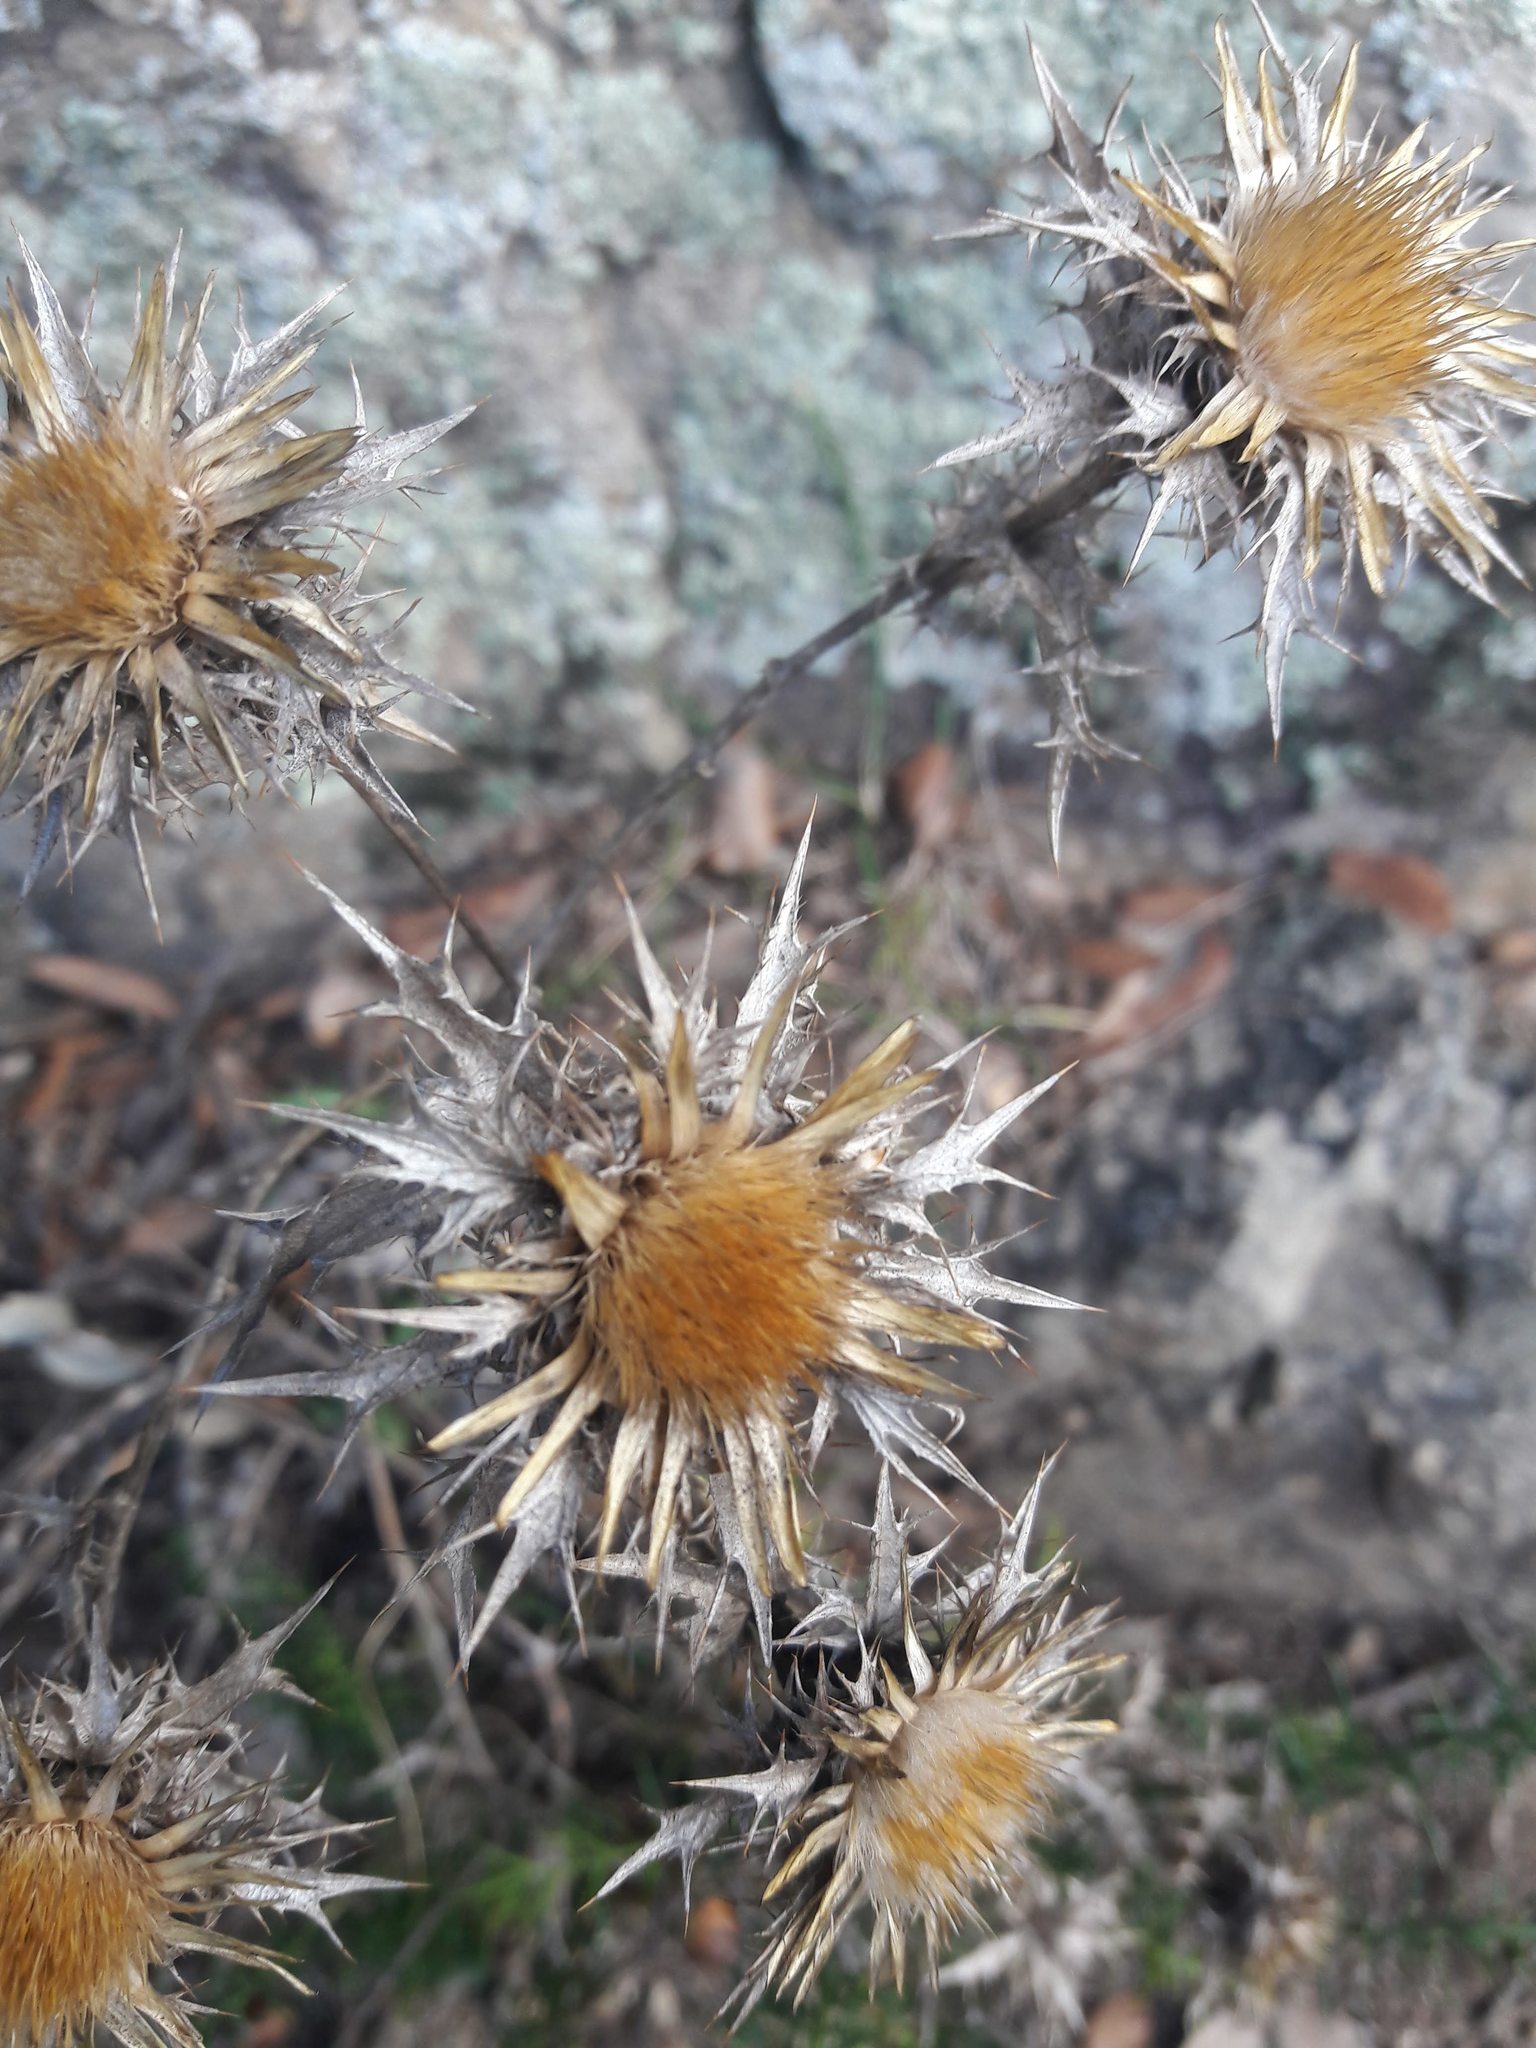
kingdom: Plantae
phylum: Tracheophyta
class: Magnoliopsida
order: Asterales
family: Asteraceae
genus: Carlina
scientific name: Carlina hispanica
